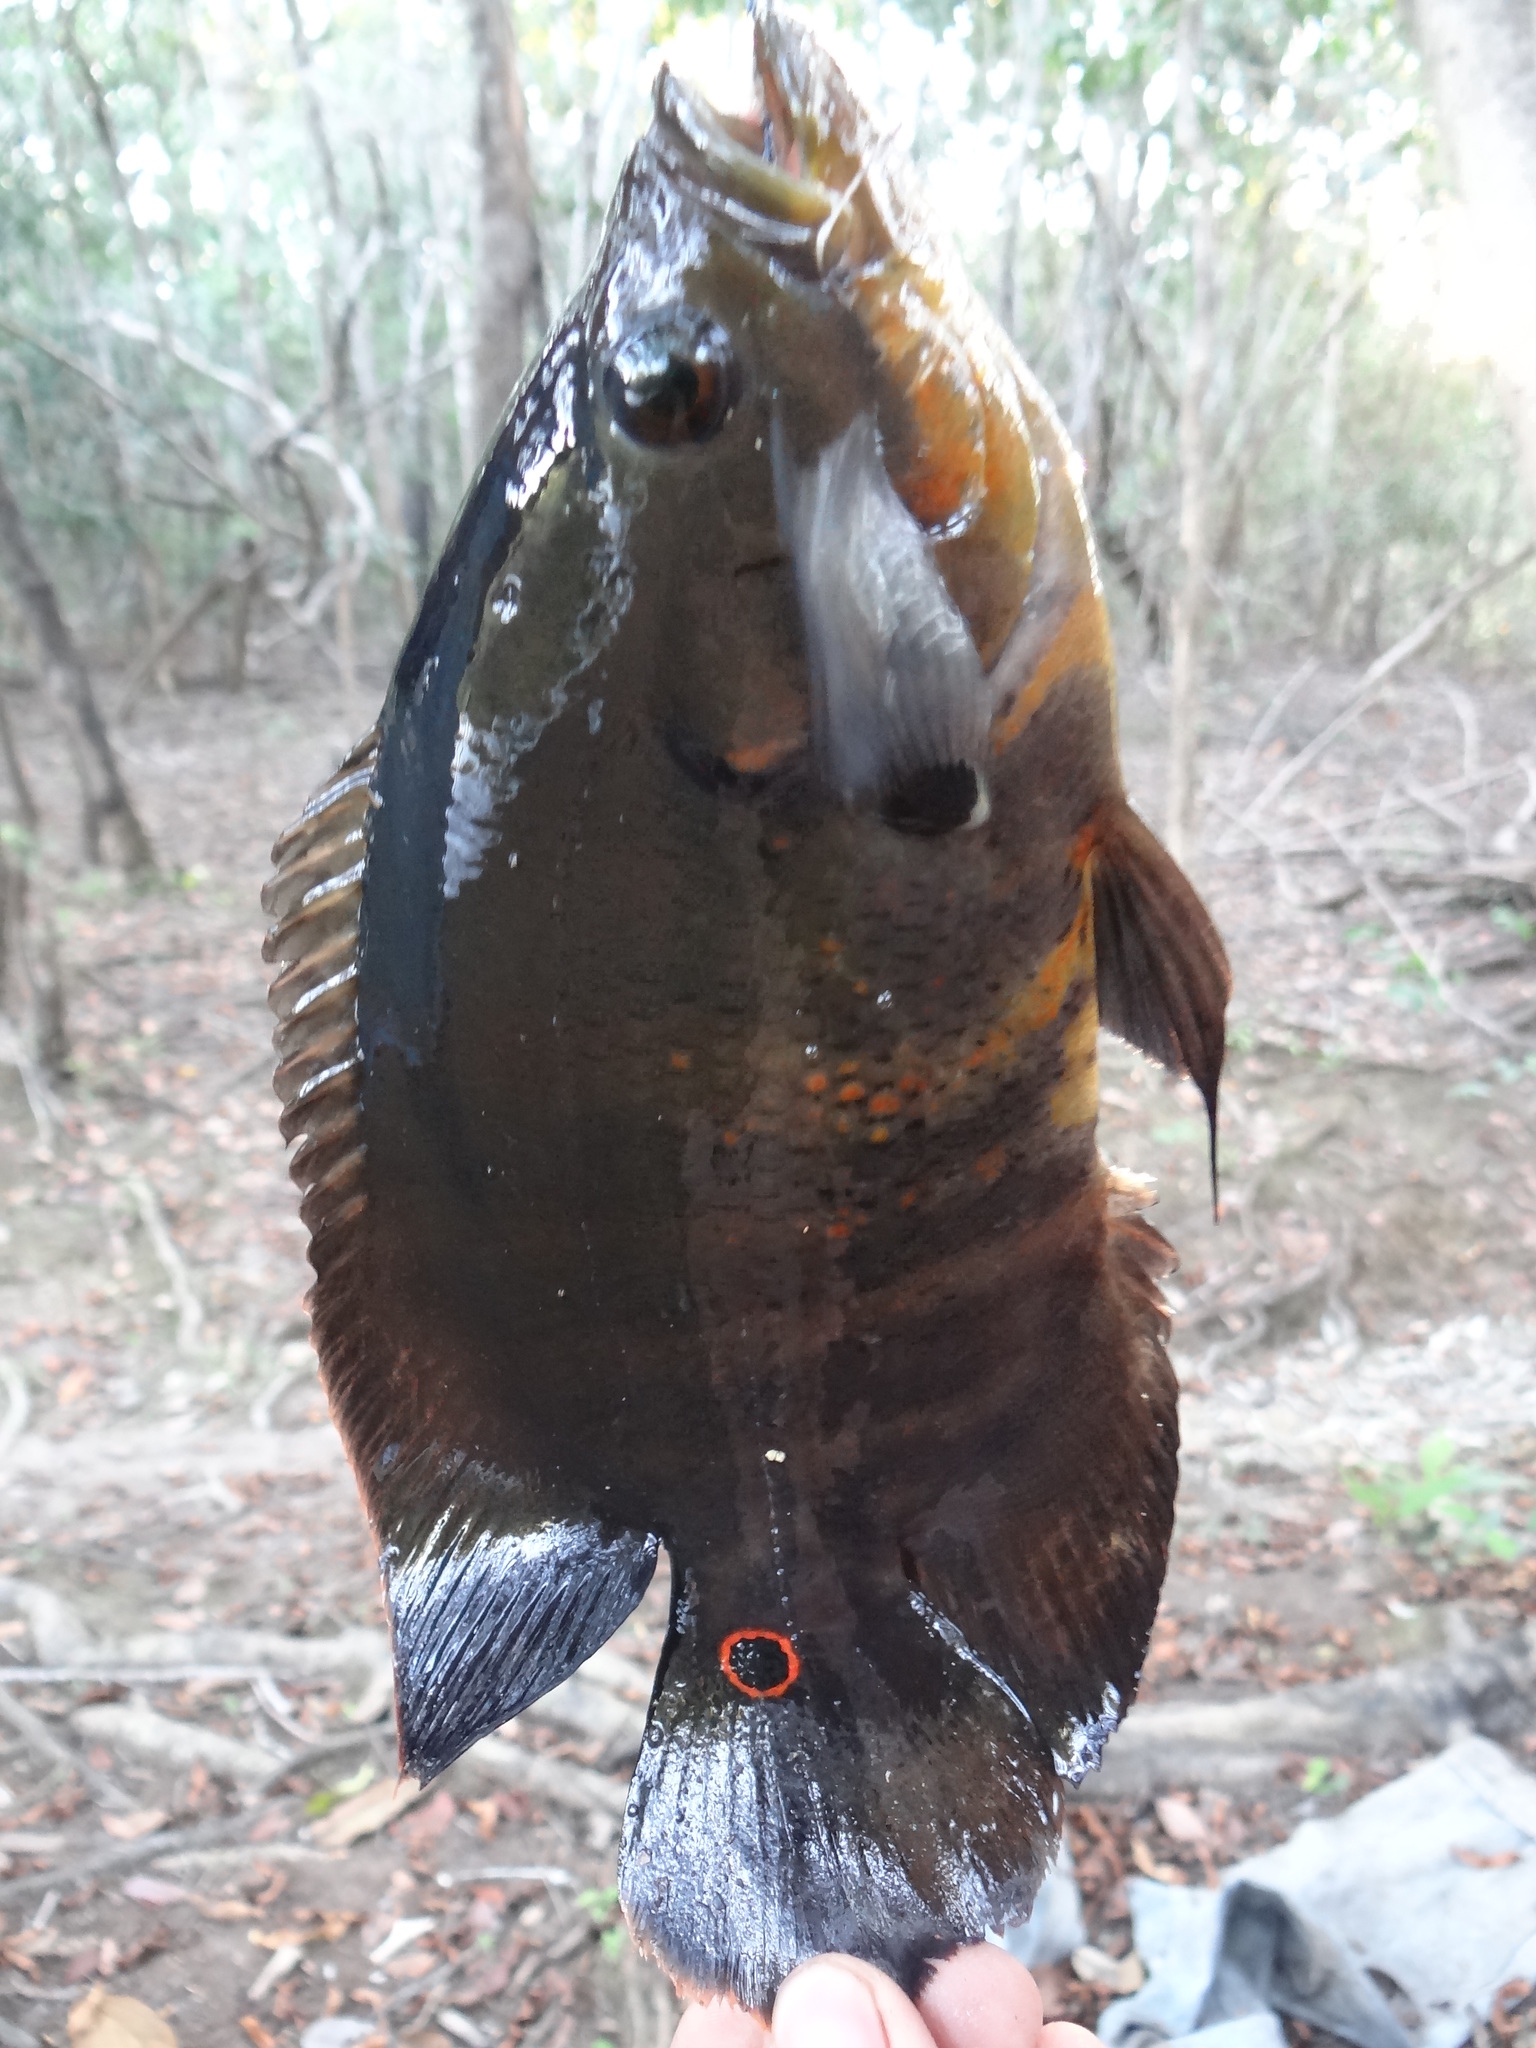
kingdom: Animalia
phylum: Chordata
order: Perciformes
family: Cichlidae
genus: Astronotus
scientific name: Astronotus ocellatus
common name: Oscar
